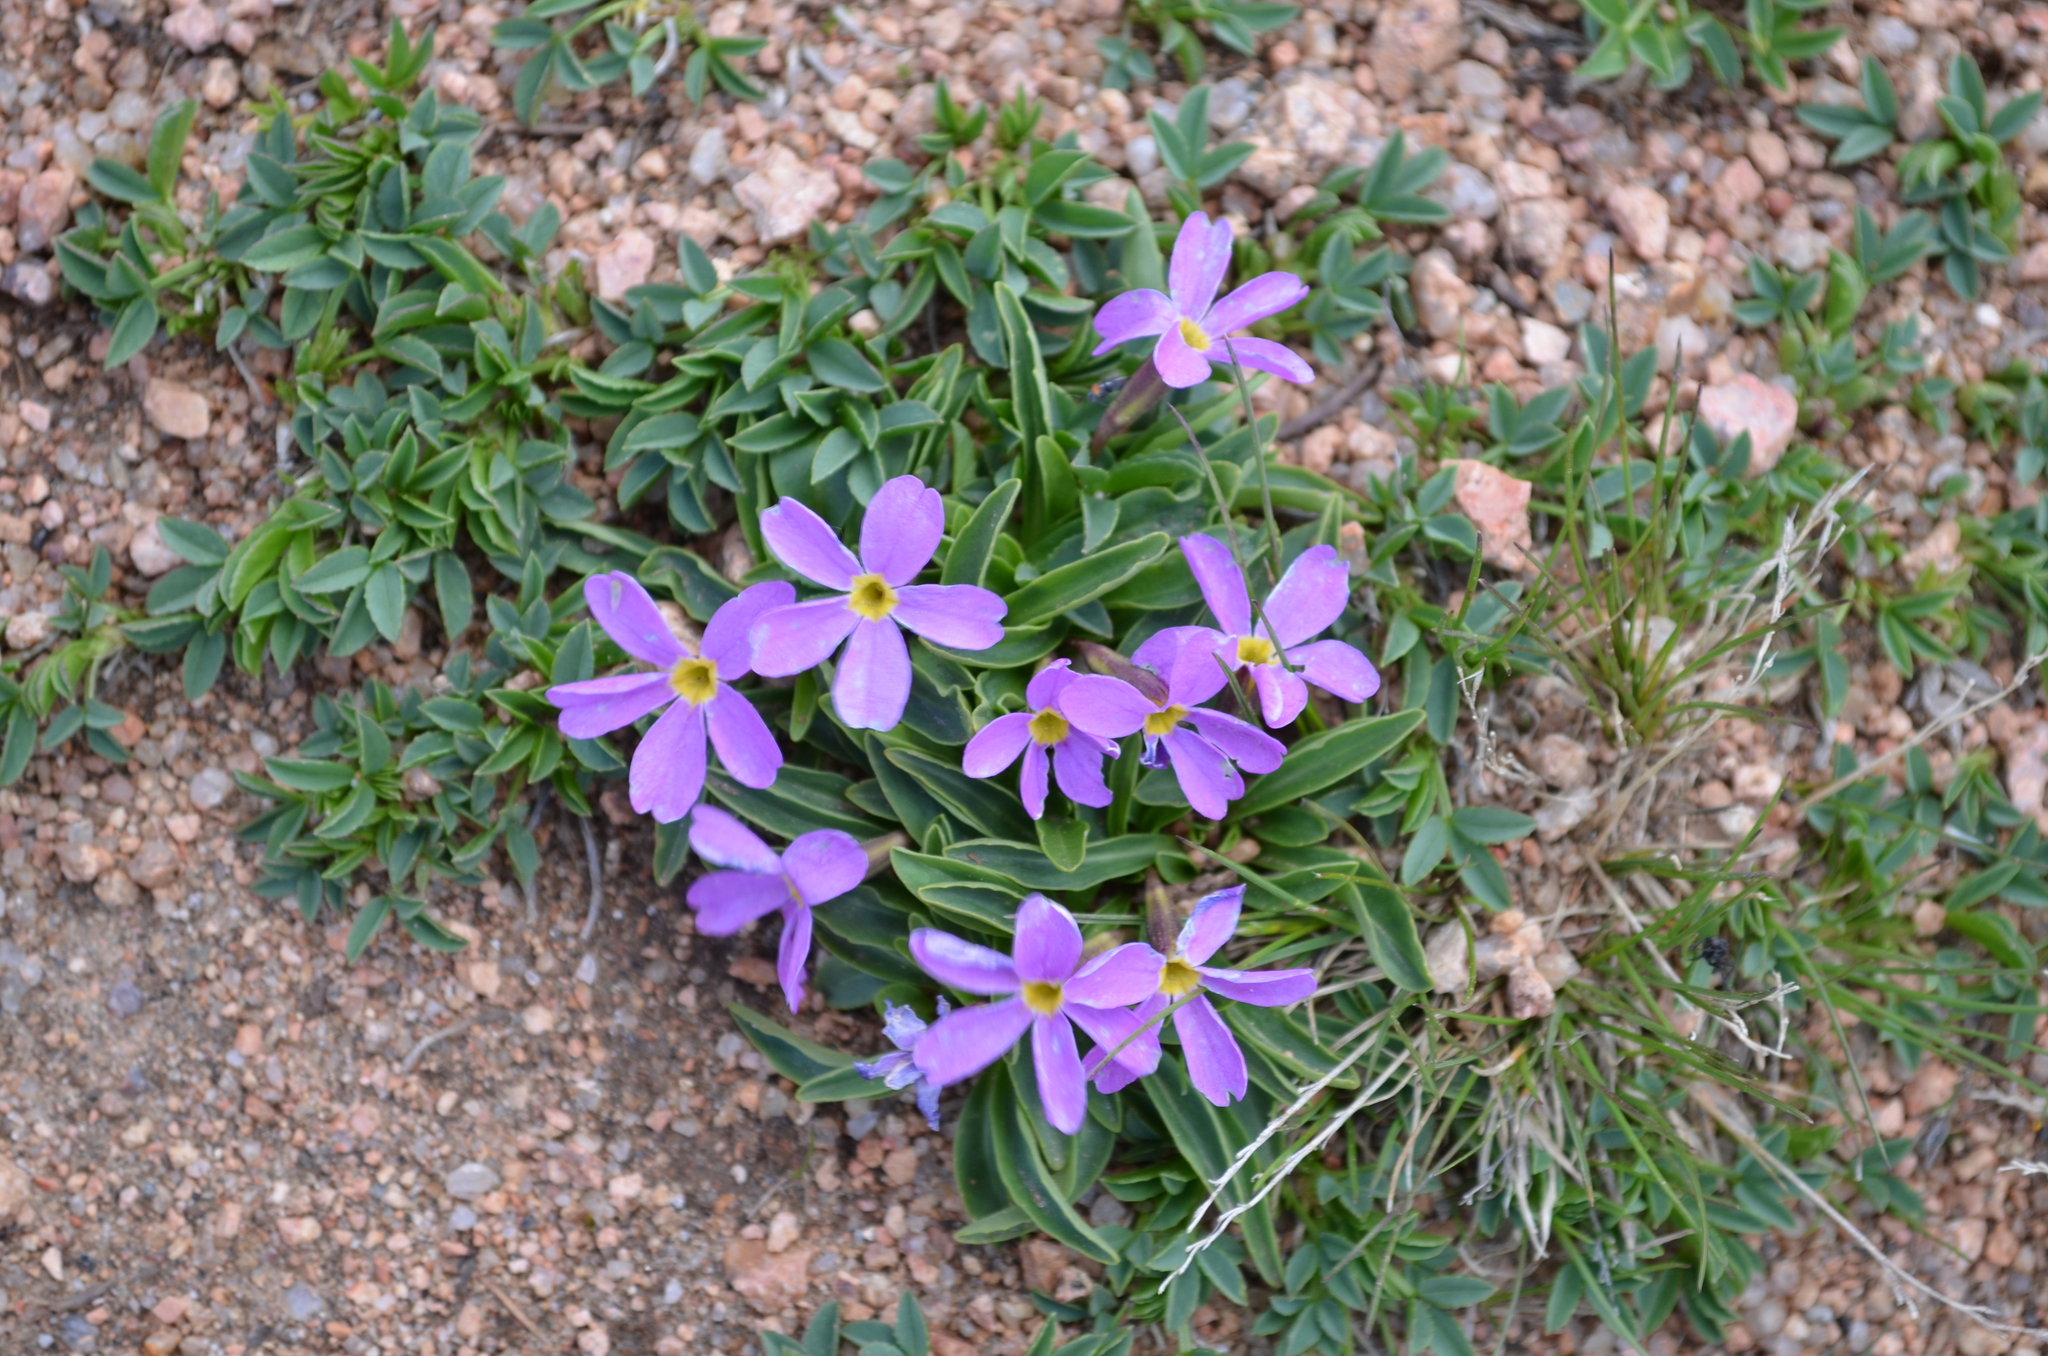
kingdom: Plantae
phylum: Tracheophyta
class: Magnoliopsida
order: Ericales
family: Primulaceae
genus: Primula
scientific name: Primula angustifolia
